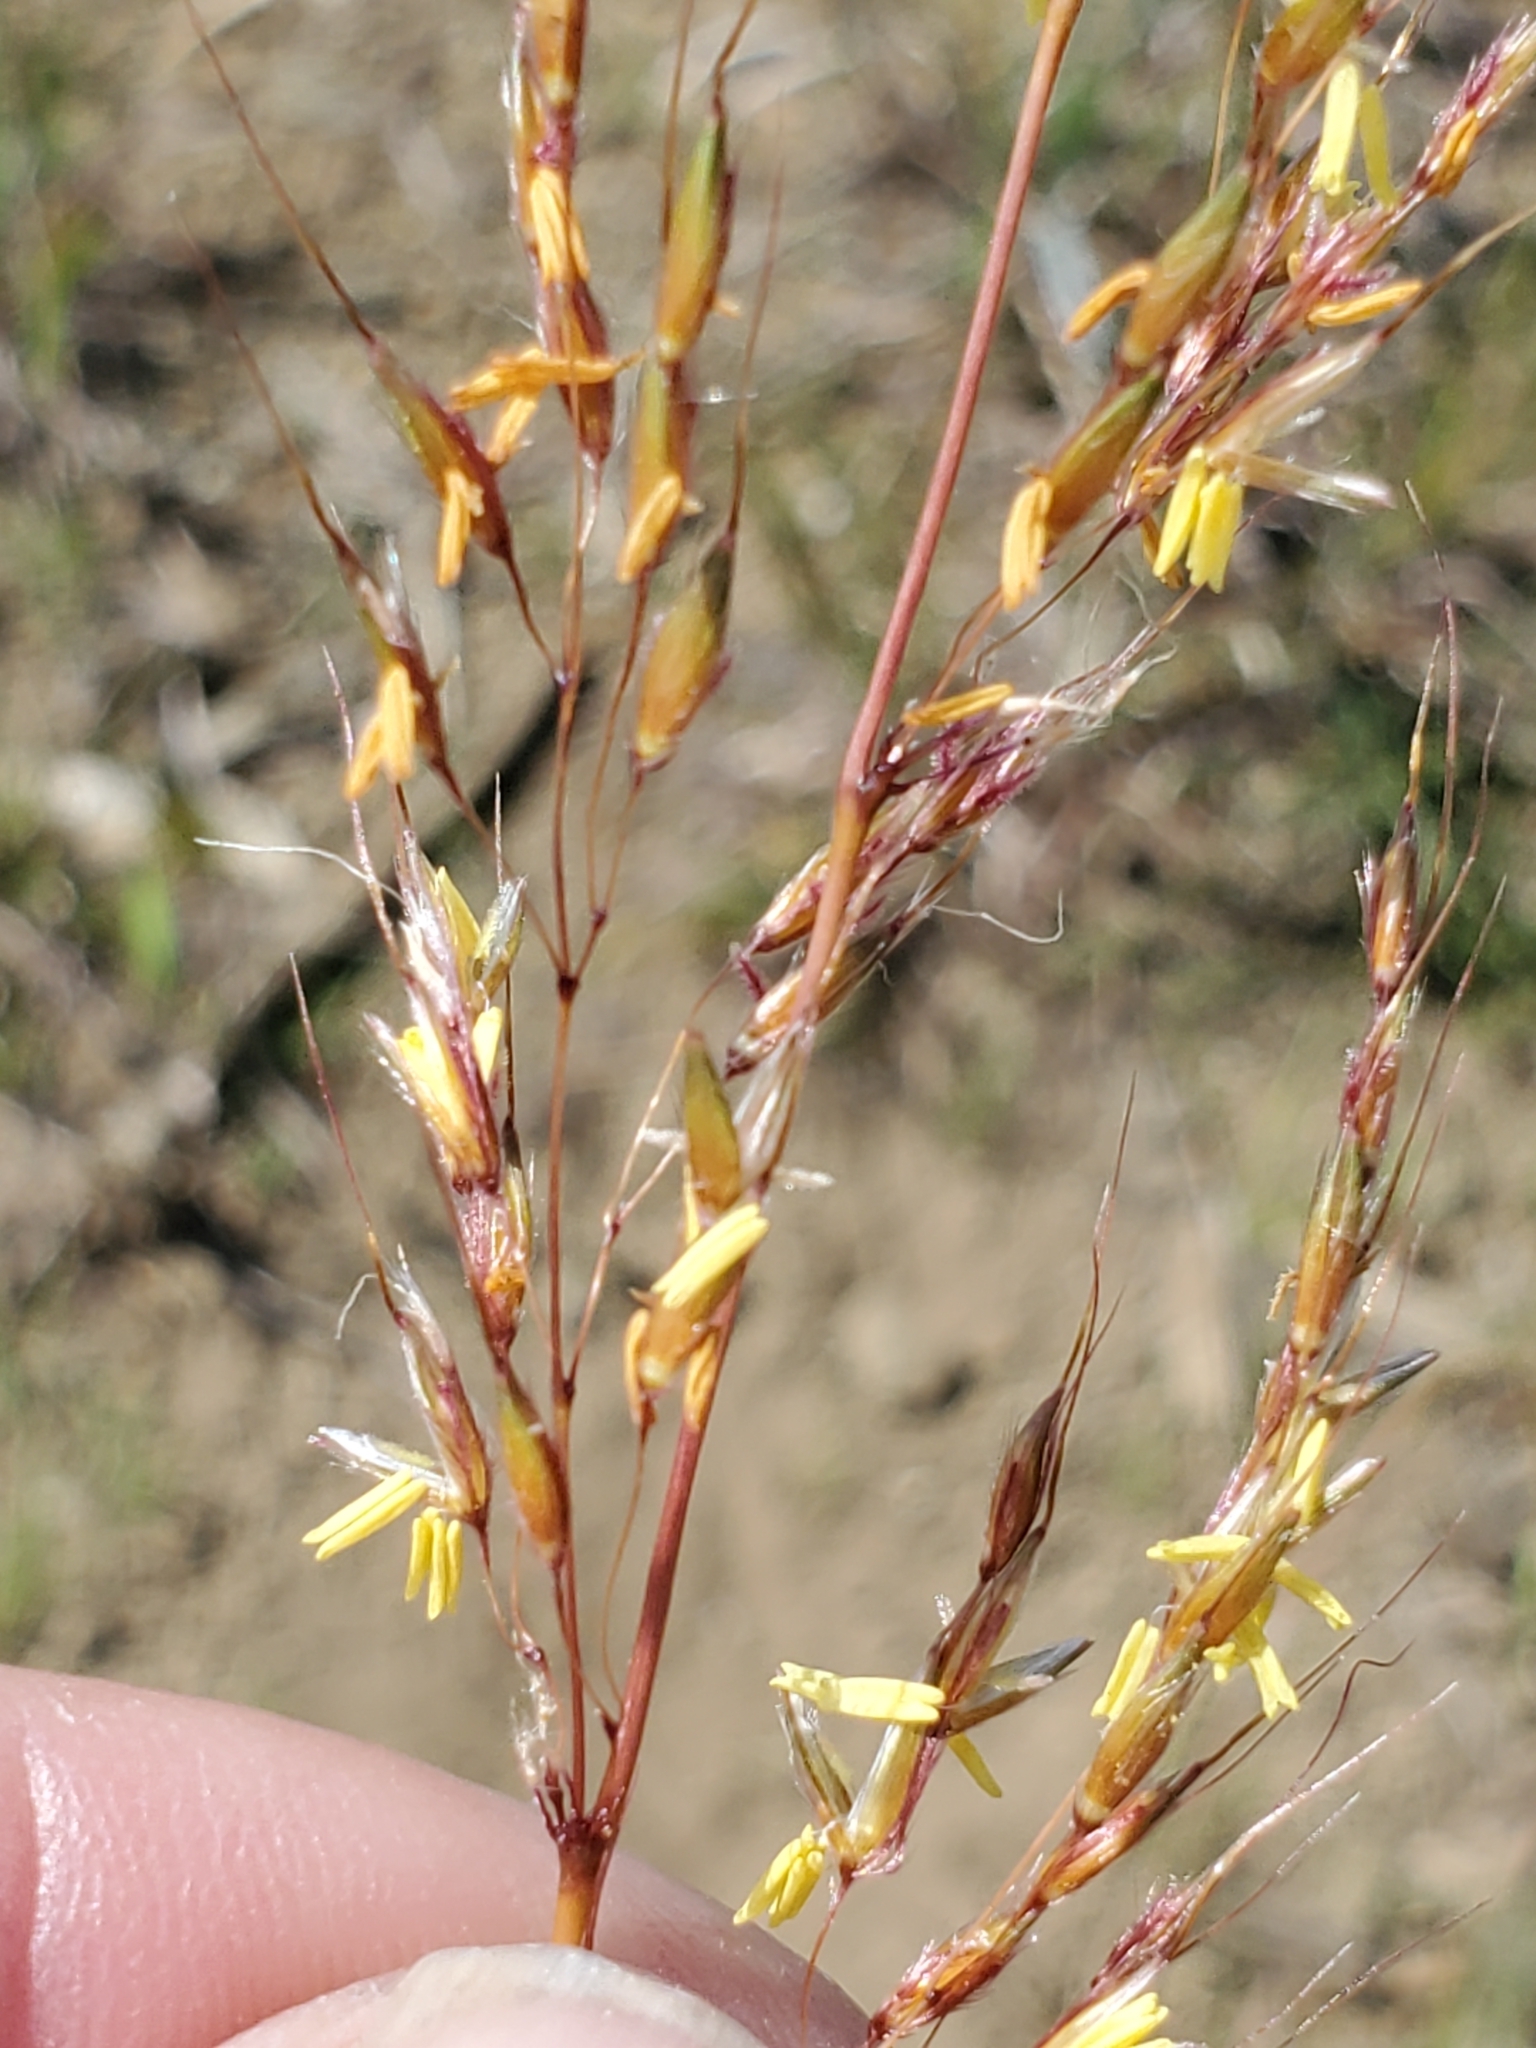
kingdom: Plantae
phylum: Tracheophyta
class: Liliopsida
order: Poales
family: Poaceae
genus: Sorghastrum
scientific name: Sorghastrum nutans
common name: Indian grass
